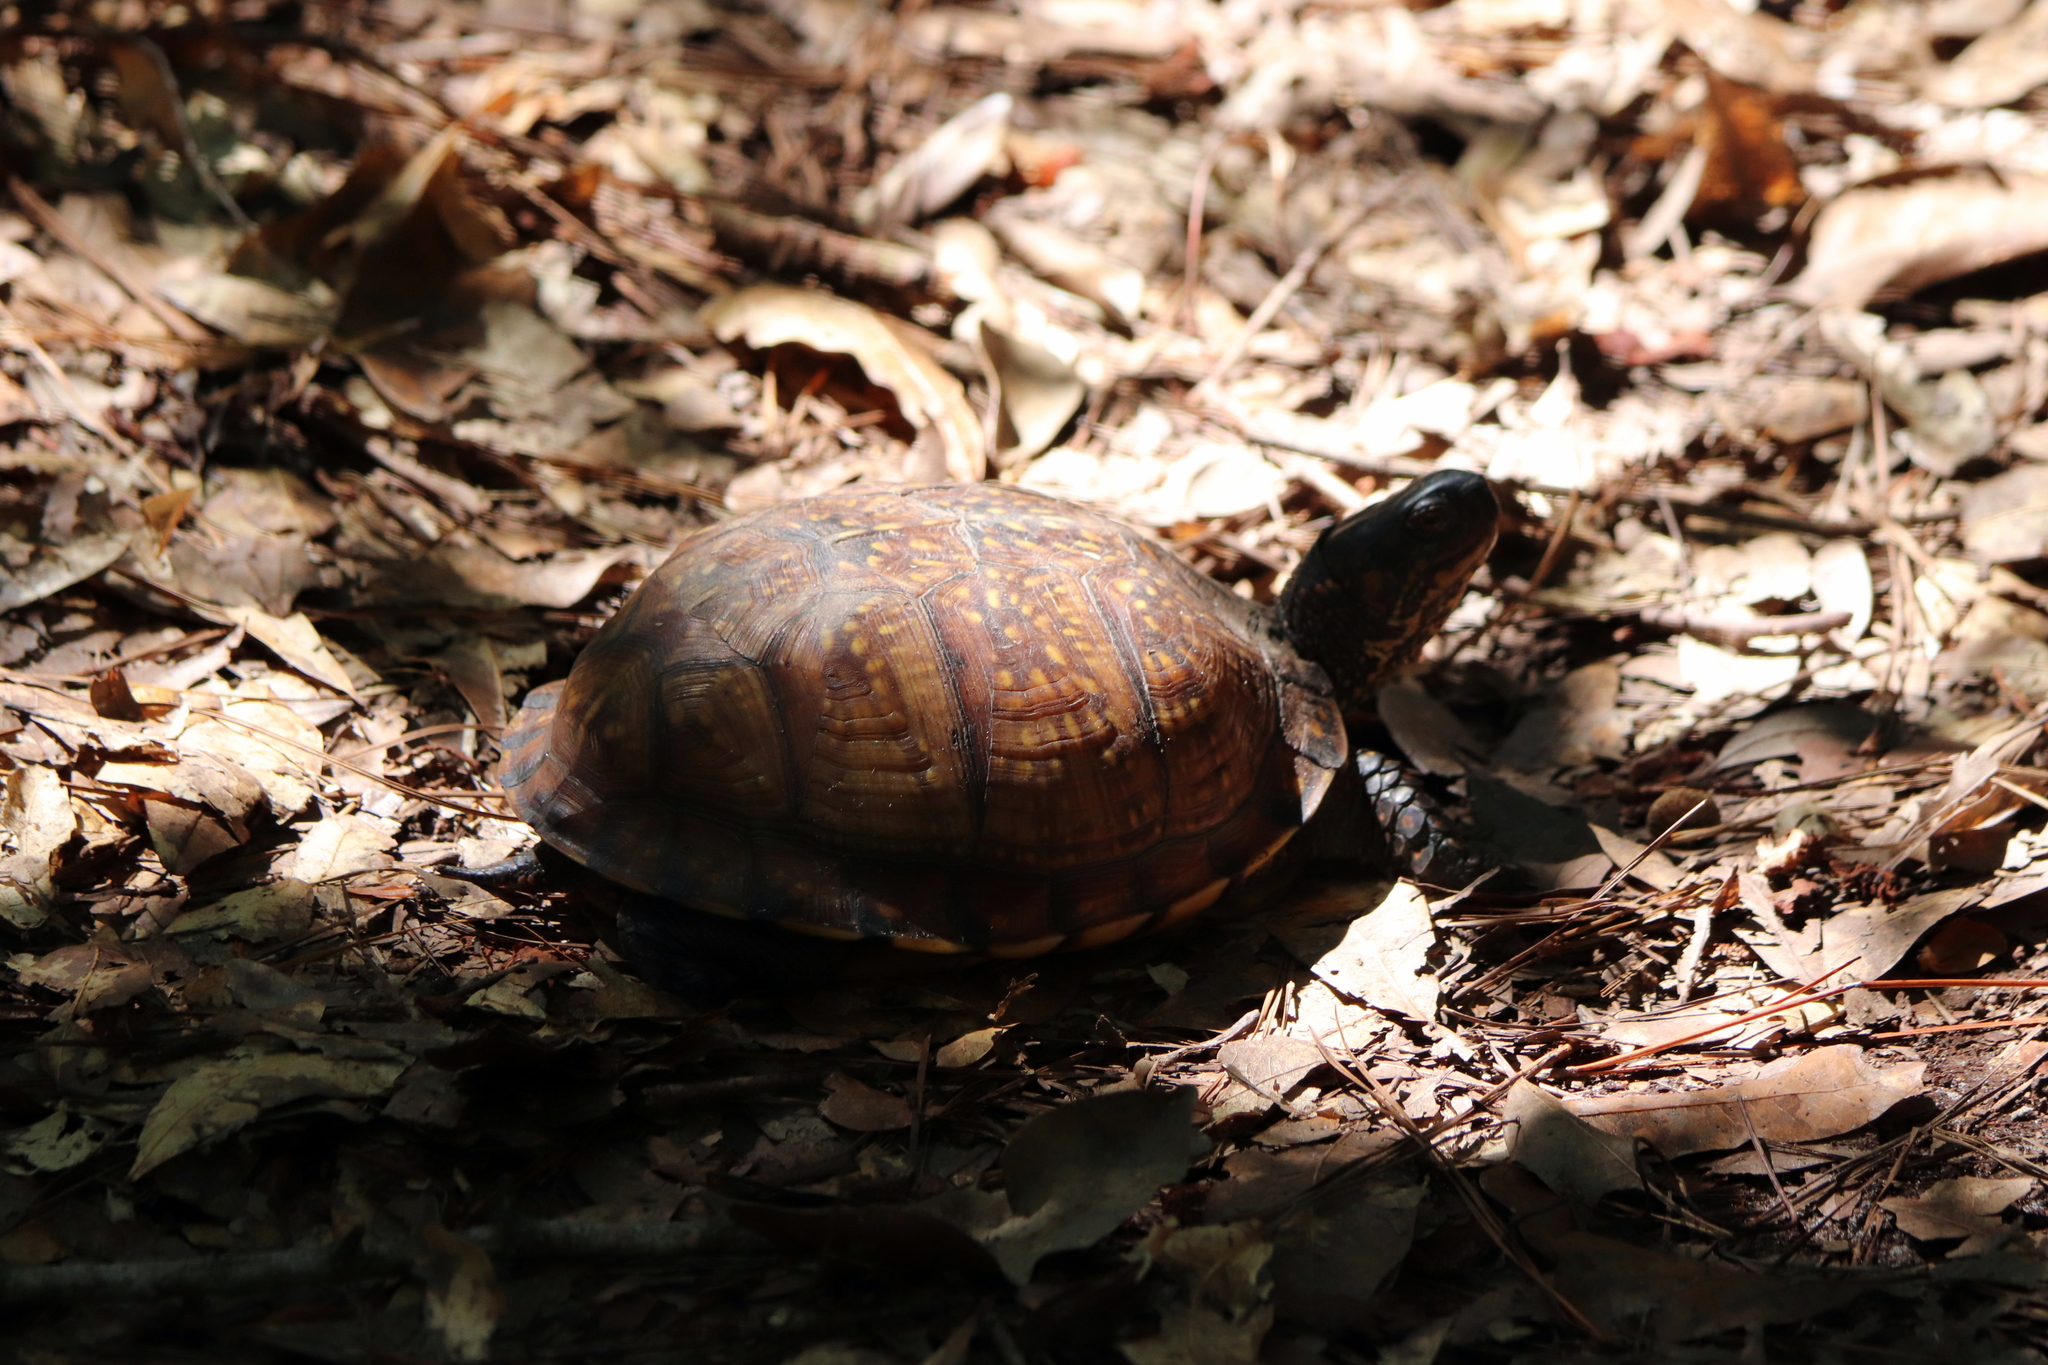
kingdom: Animalia
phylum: Chordata
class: Testudines
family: Emydidae
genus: Terrapene
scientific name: Terrapene carolina
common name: Common box turtle
